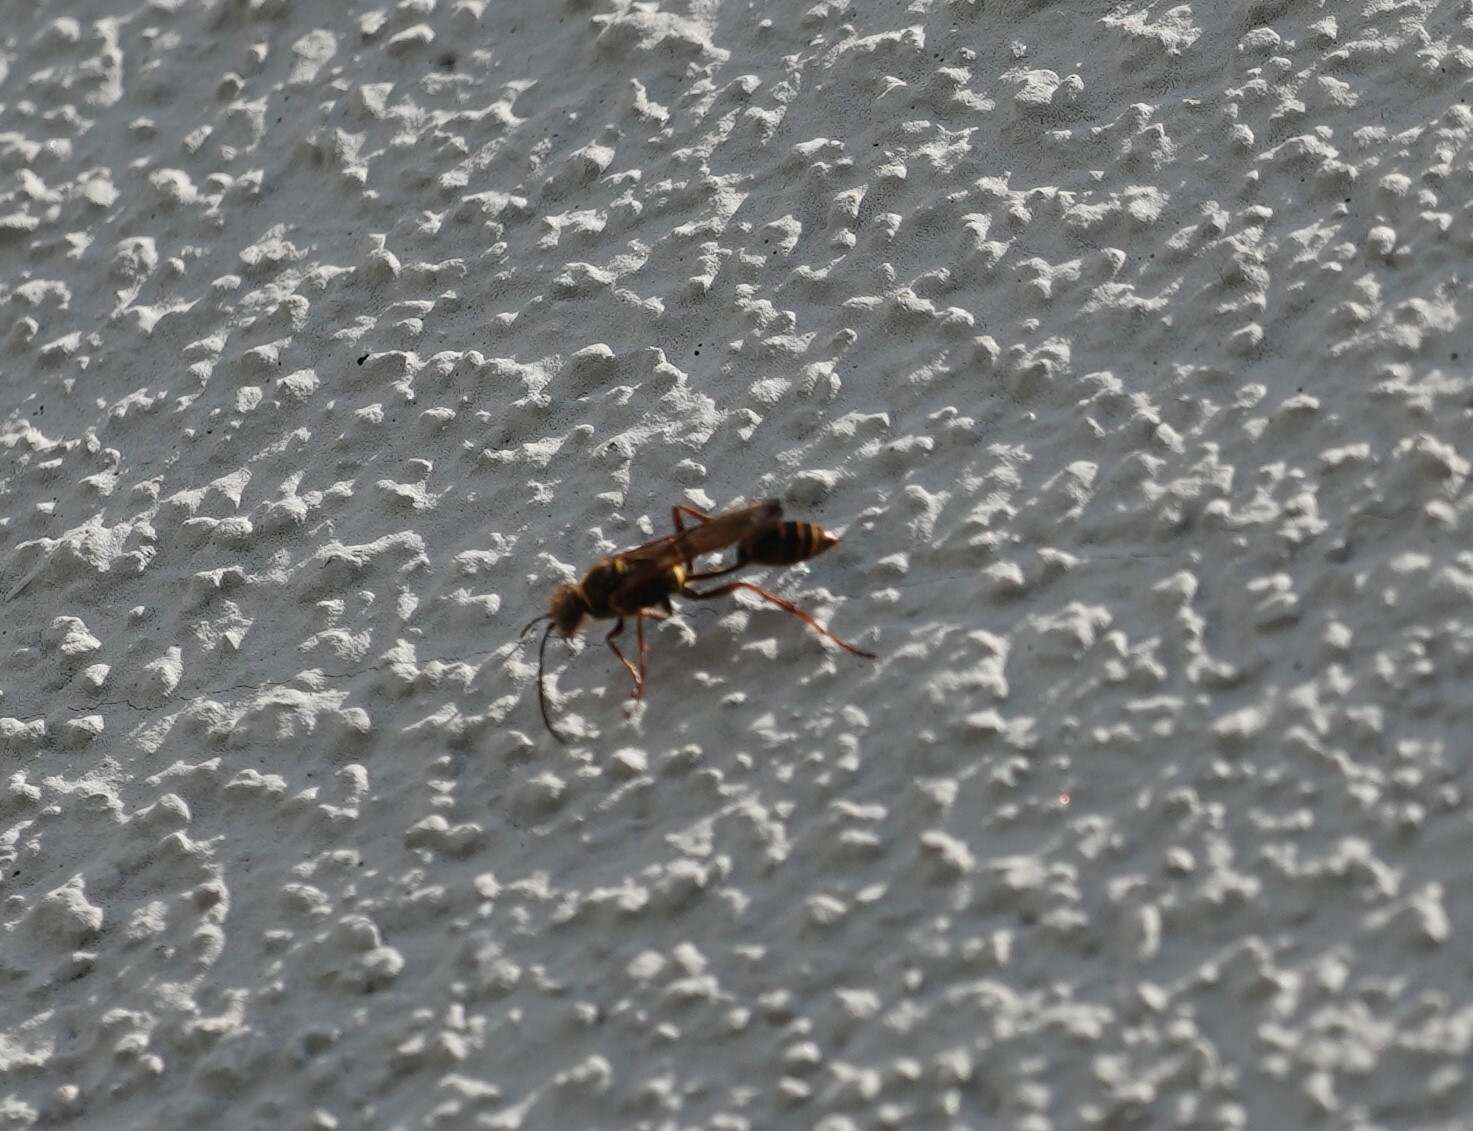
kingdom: Animalia
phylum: Arthropoda
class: Insecta
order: Hymenoptera
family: Sphecidae
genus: Sceliphron
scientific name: Sceliphron curvatum
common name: Pèlopèe
